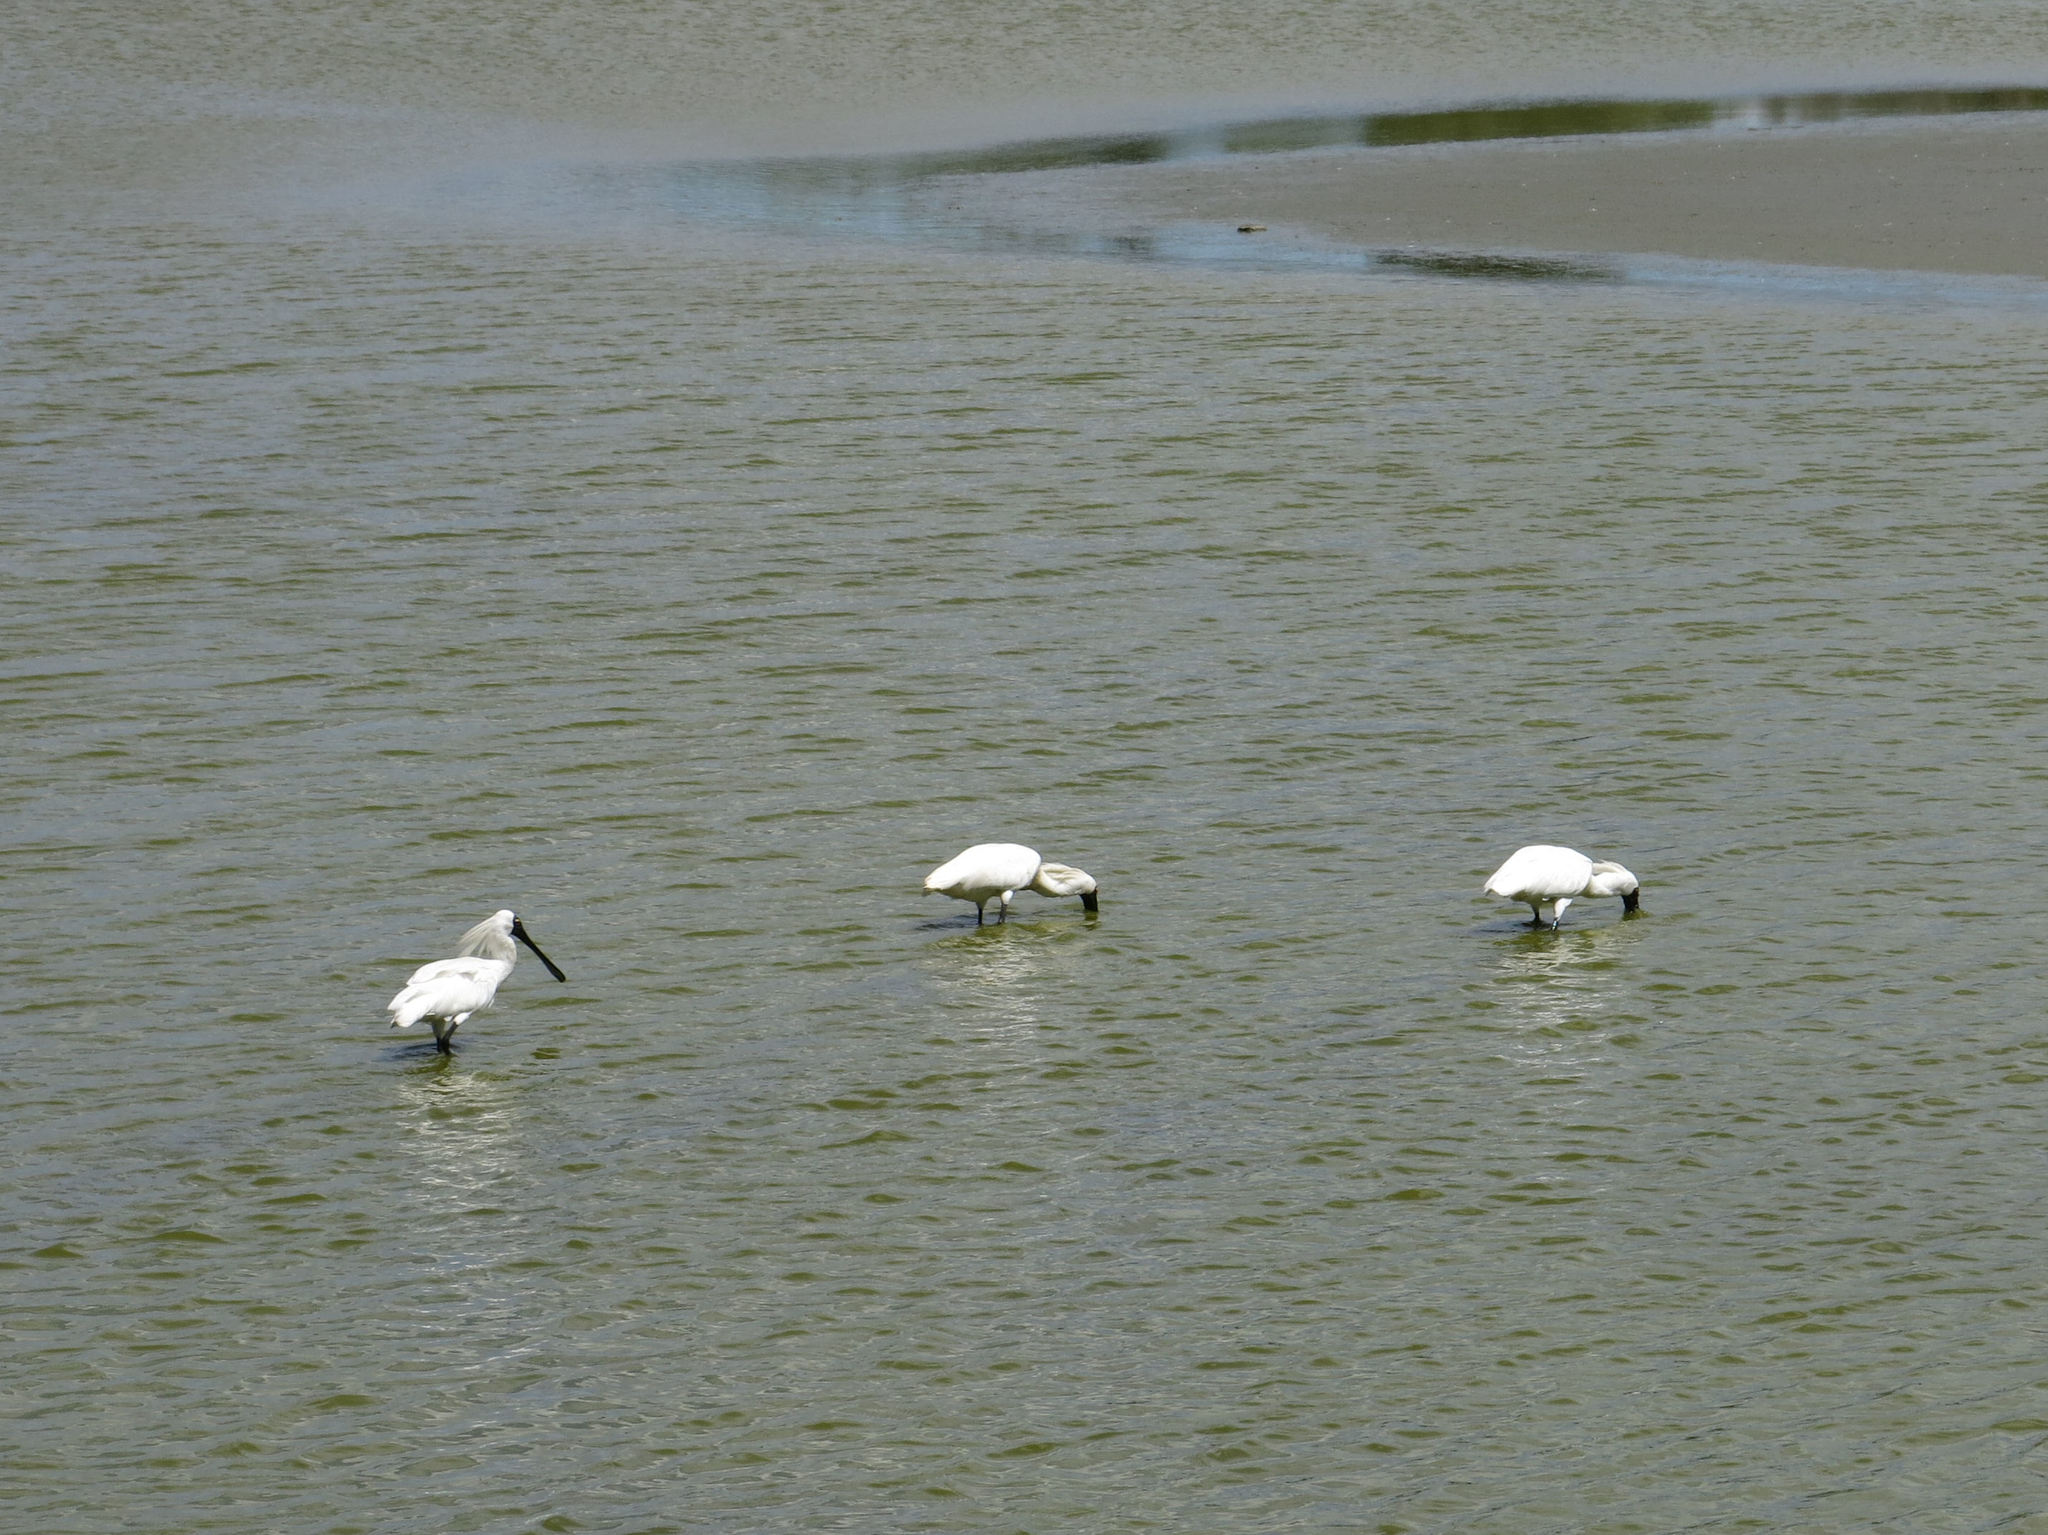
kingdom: Animalia
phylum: Chordata
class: Aves
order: Pelecaniformes
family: Threskiornithidae
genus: Platalea
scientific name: Platalea regia
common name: Royal spoonbill
